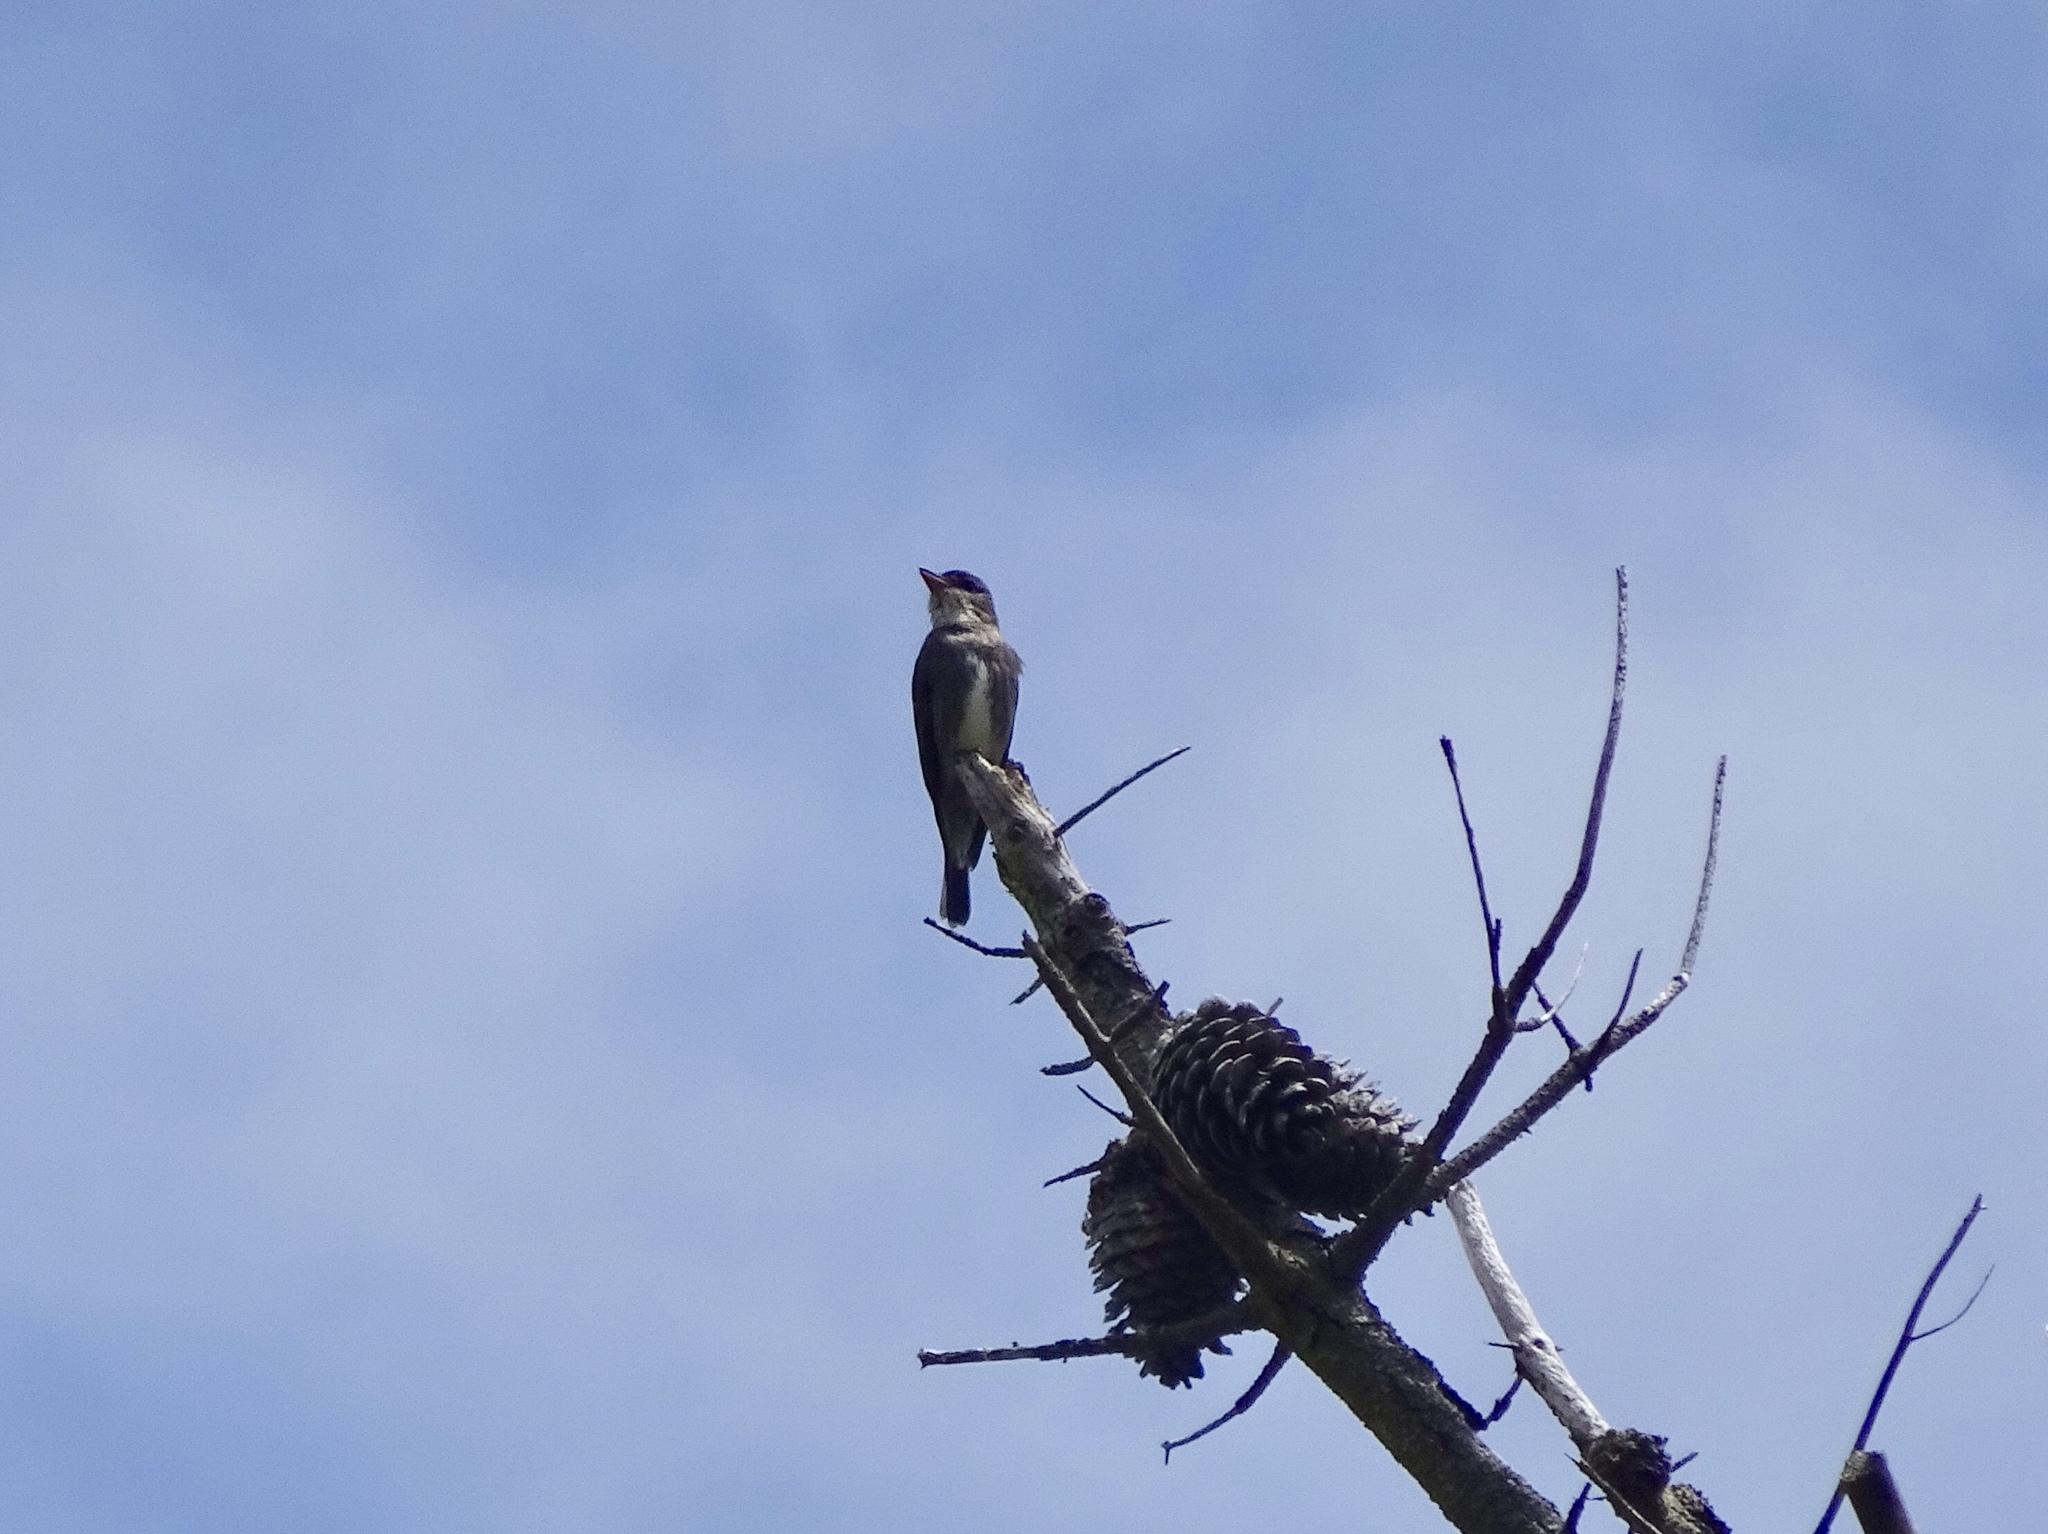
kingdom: Animalia
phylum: Chordata
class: Aves
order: Passeriformes
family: Tyrannidae
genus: Contopus
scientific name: Contopus cooperi
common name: Olive-sided flycatcher
